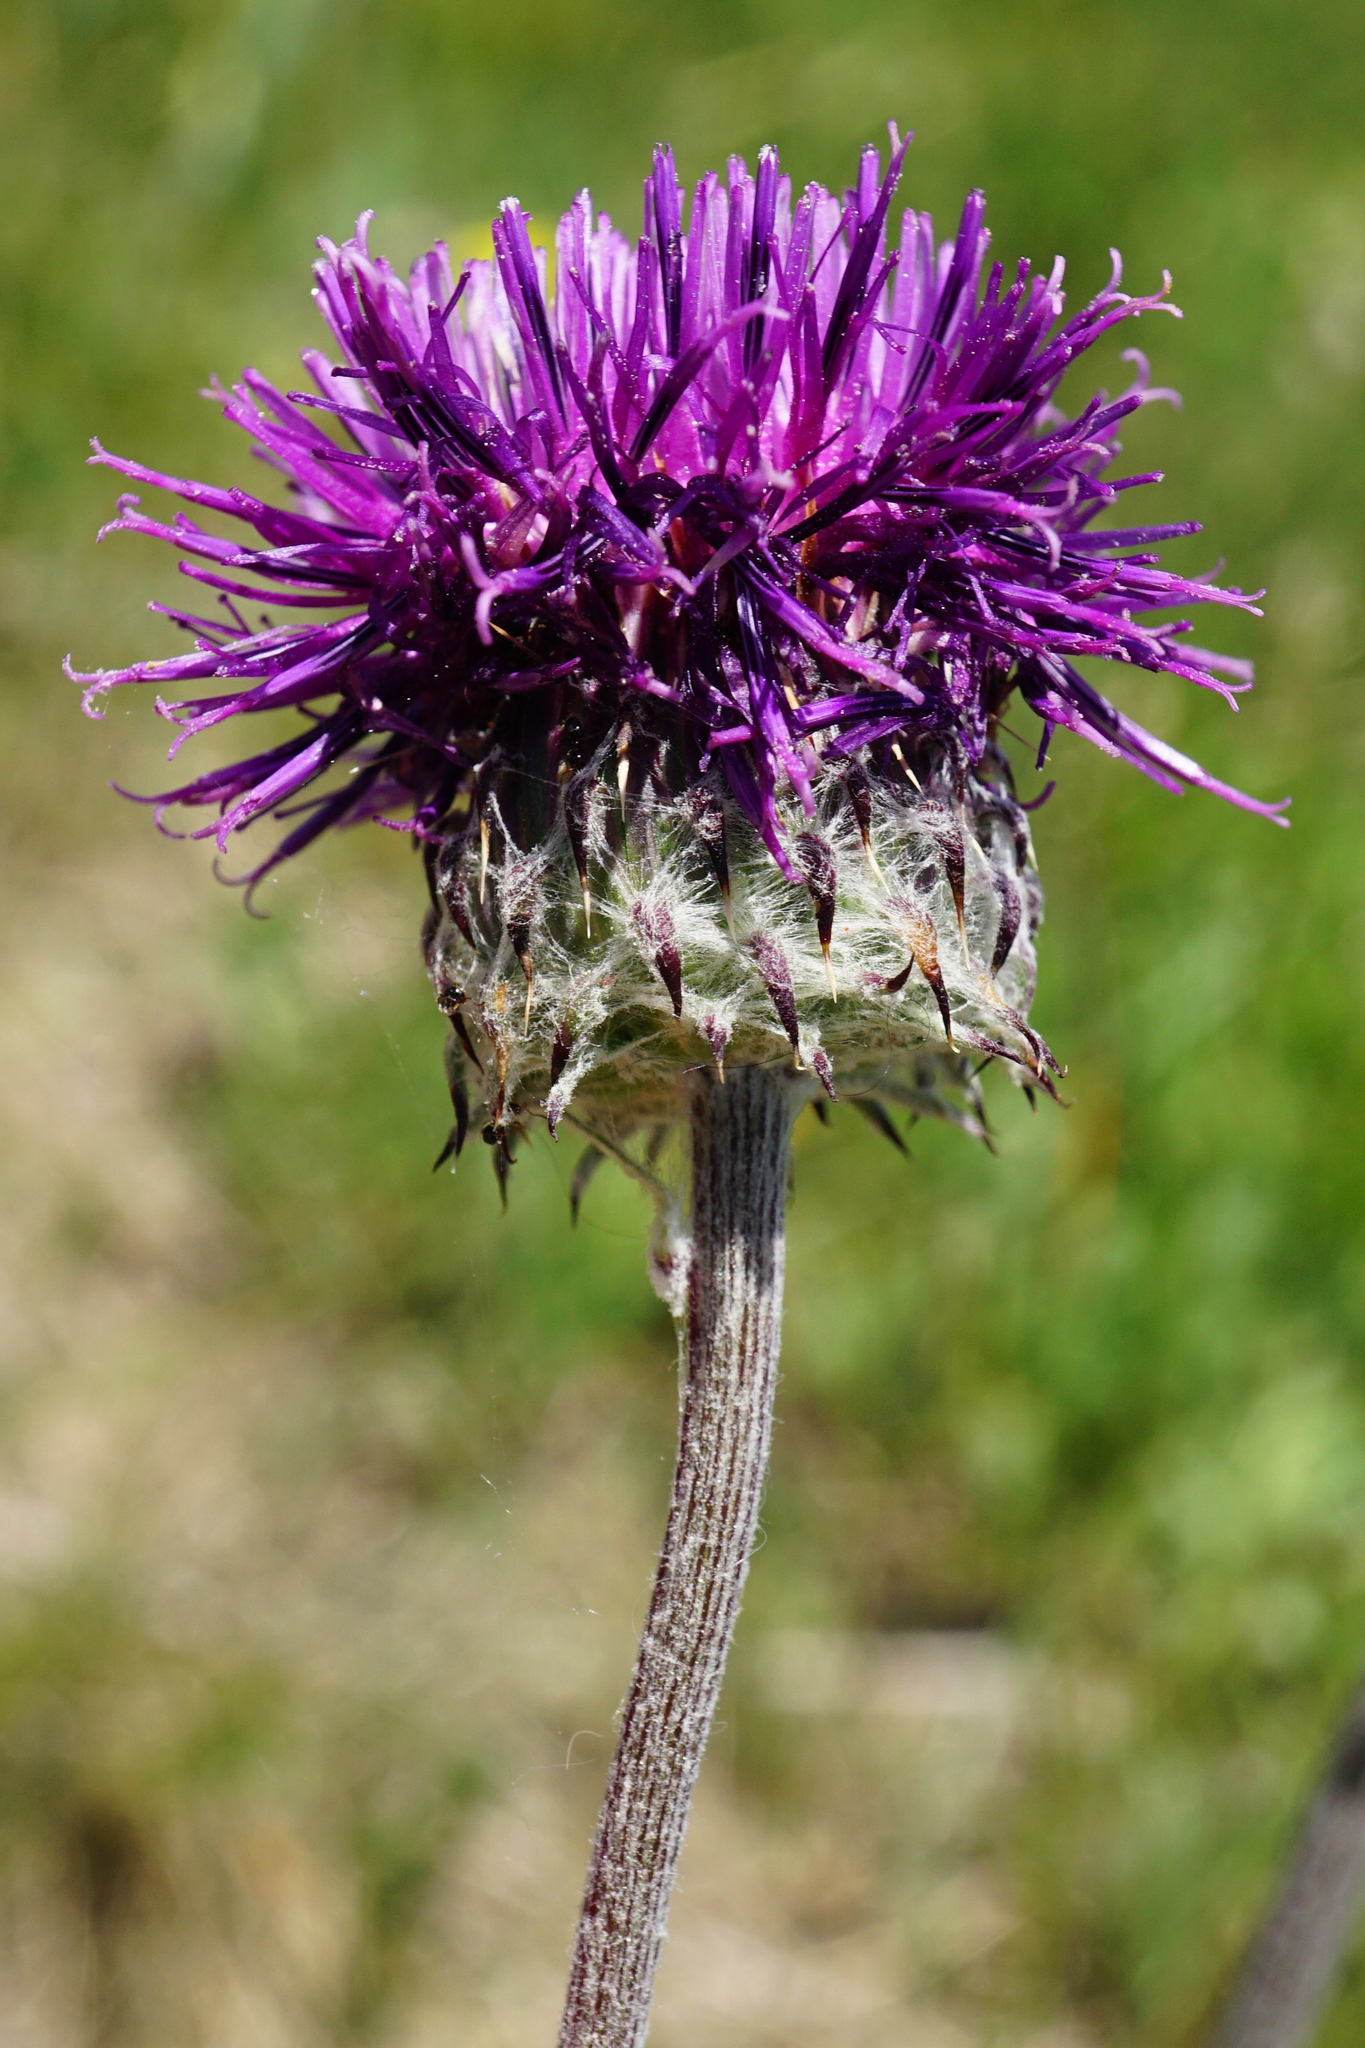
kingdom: Plantae
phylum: Tracheophyta
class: Magnoliopsida
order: Asterales
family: Asteraceae
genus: Jurinea
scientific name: Jurinea mollis
